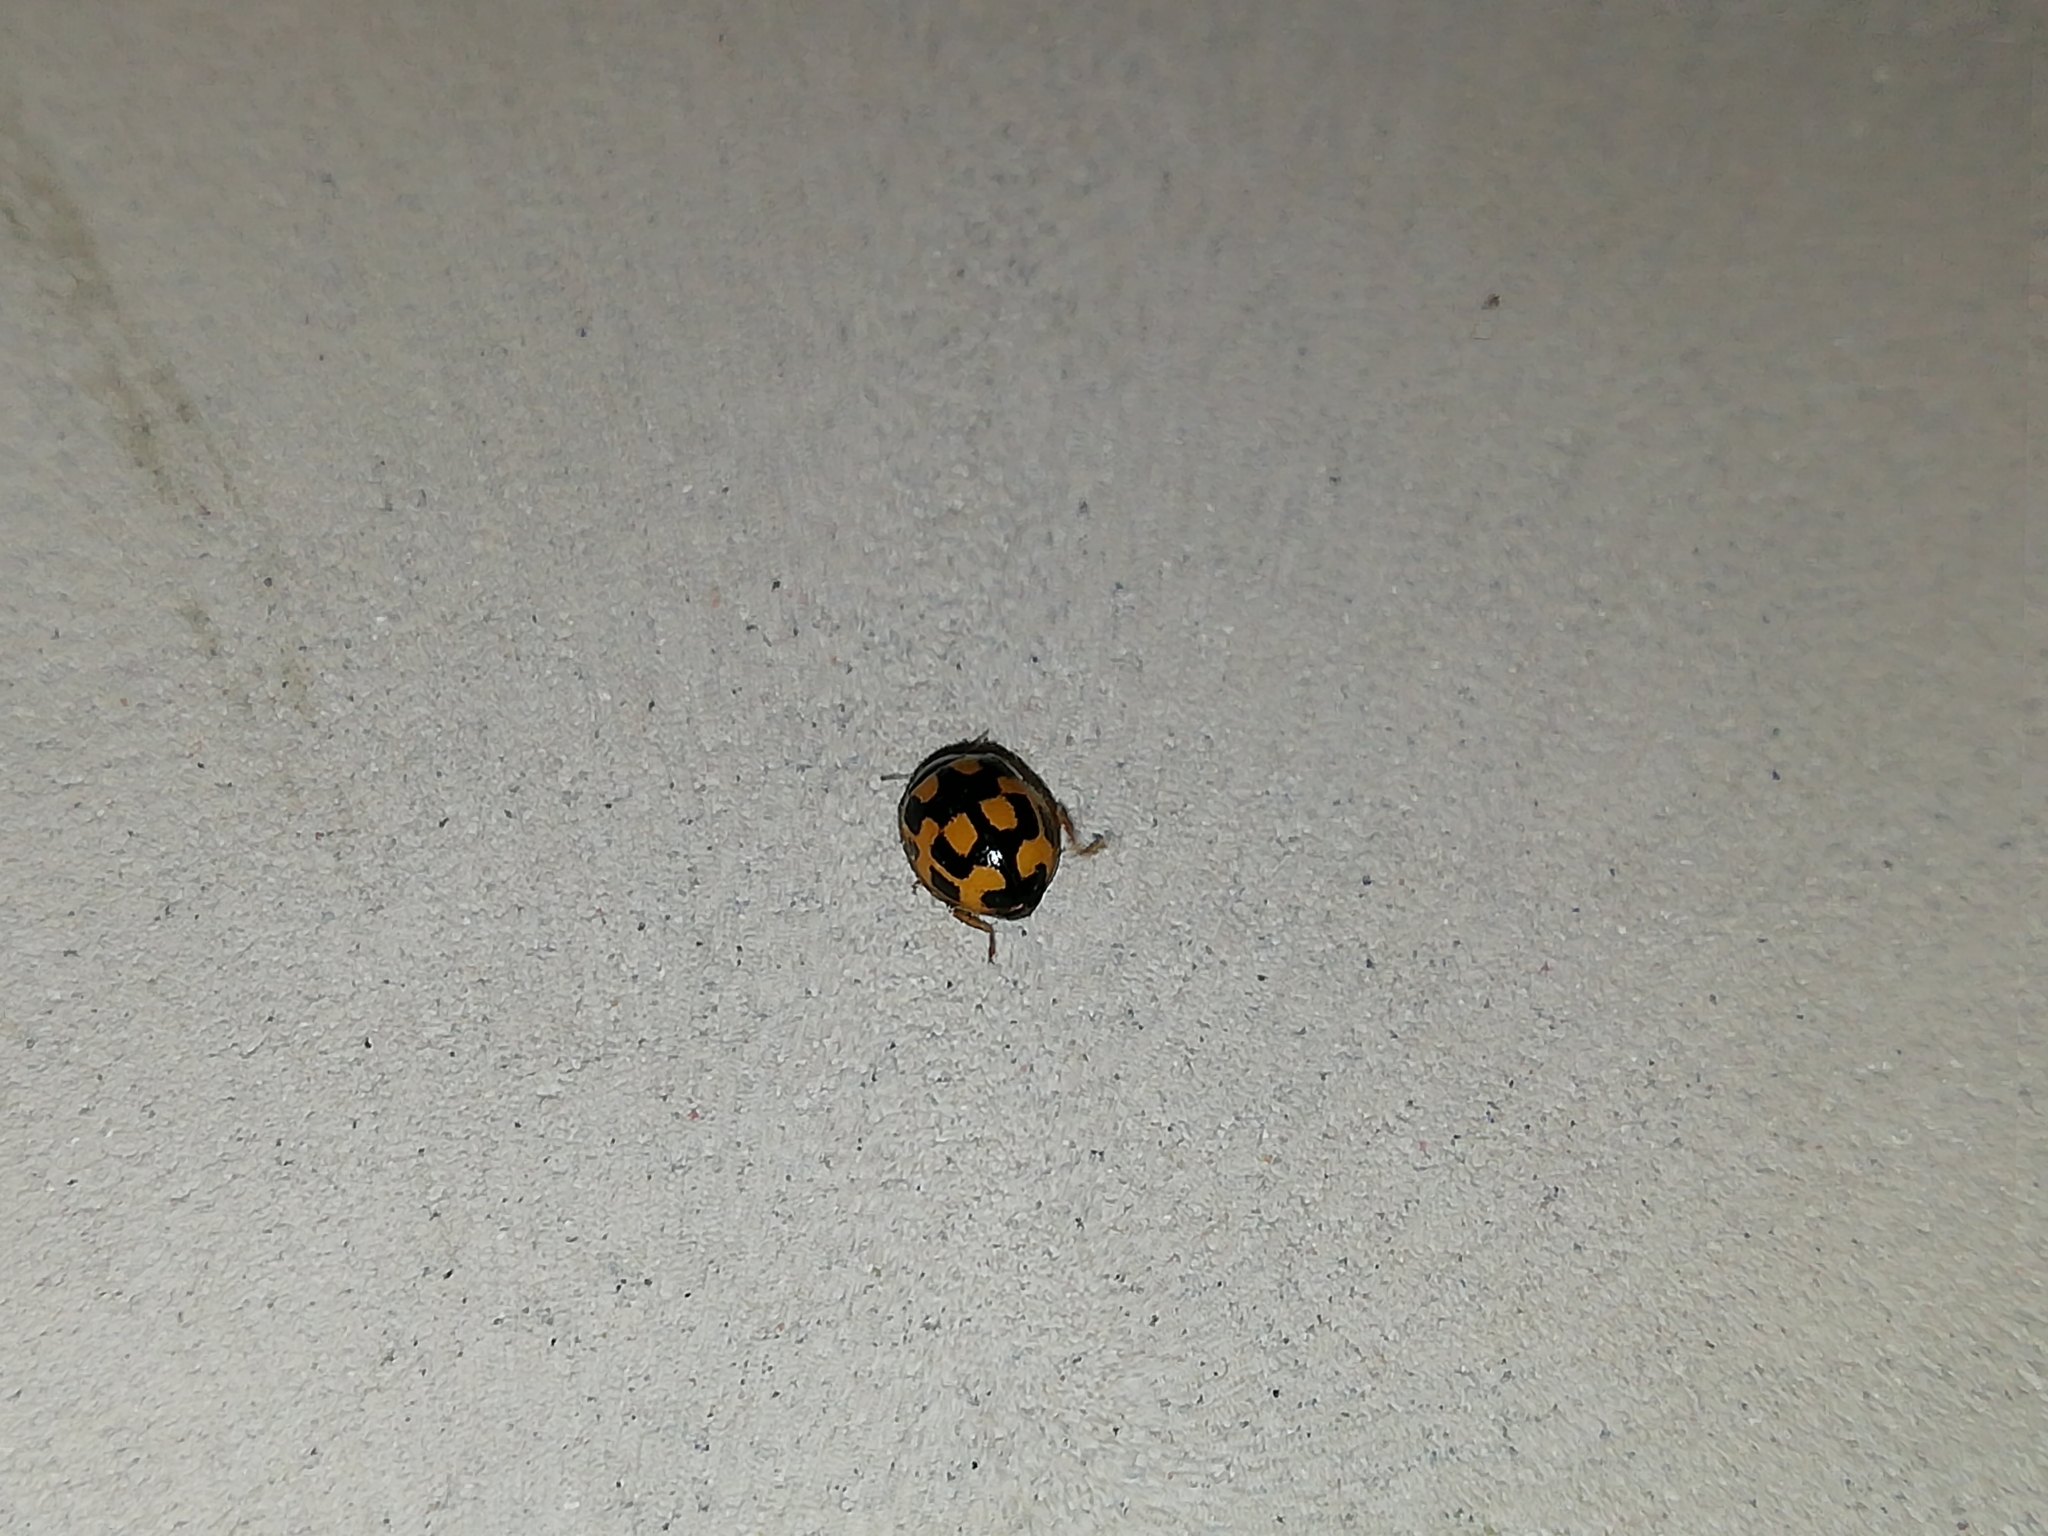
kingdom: Animalia
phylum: Arthropoda
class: Insecta
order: Coleoptera
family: Coccinellidae
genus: Propylaea
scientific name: Propylaea quatuordecimpunctata
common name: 14-spotted ladybird beetle
